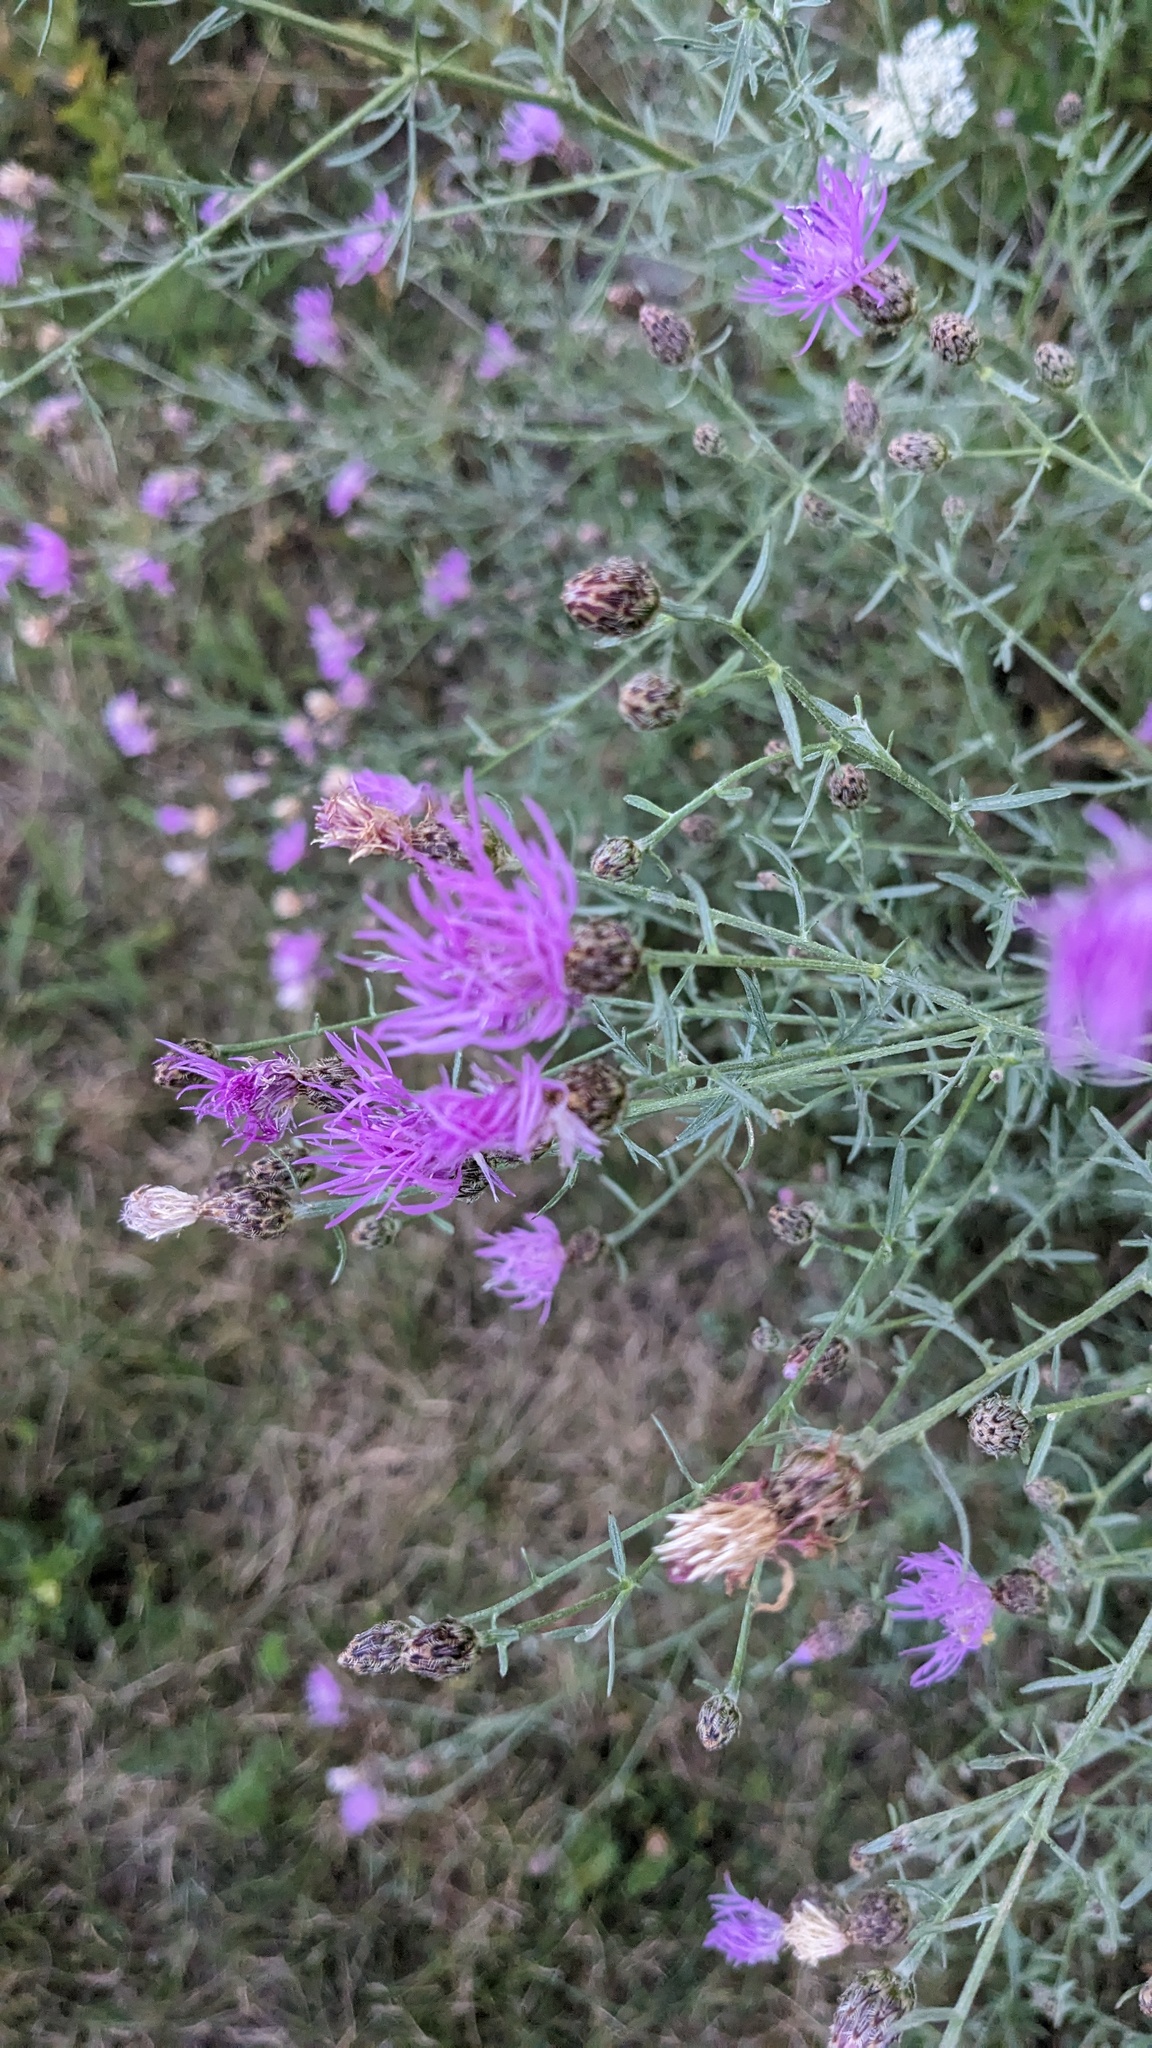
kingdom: Plantae
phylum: Tracheophyta
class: Magnoliopsida
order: Asterales
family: Asteraceae
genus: Centaurea
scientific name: Centaurea stoebe
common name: Spotted knapweed
